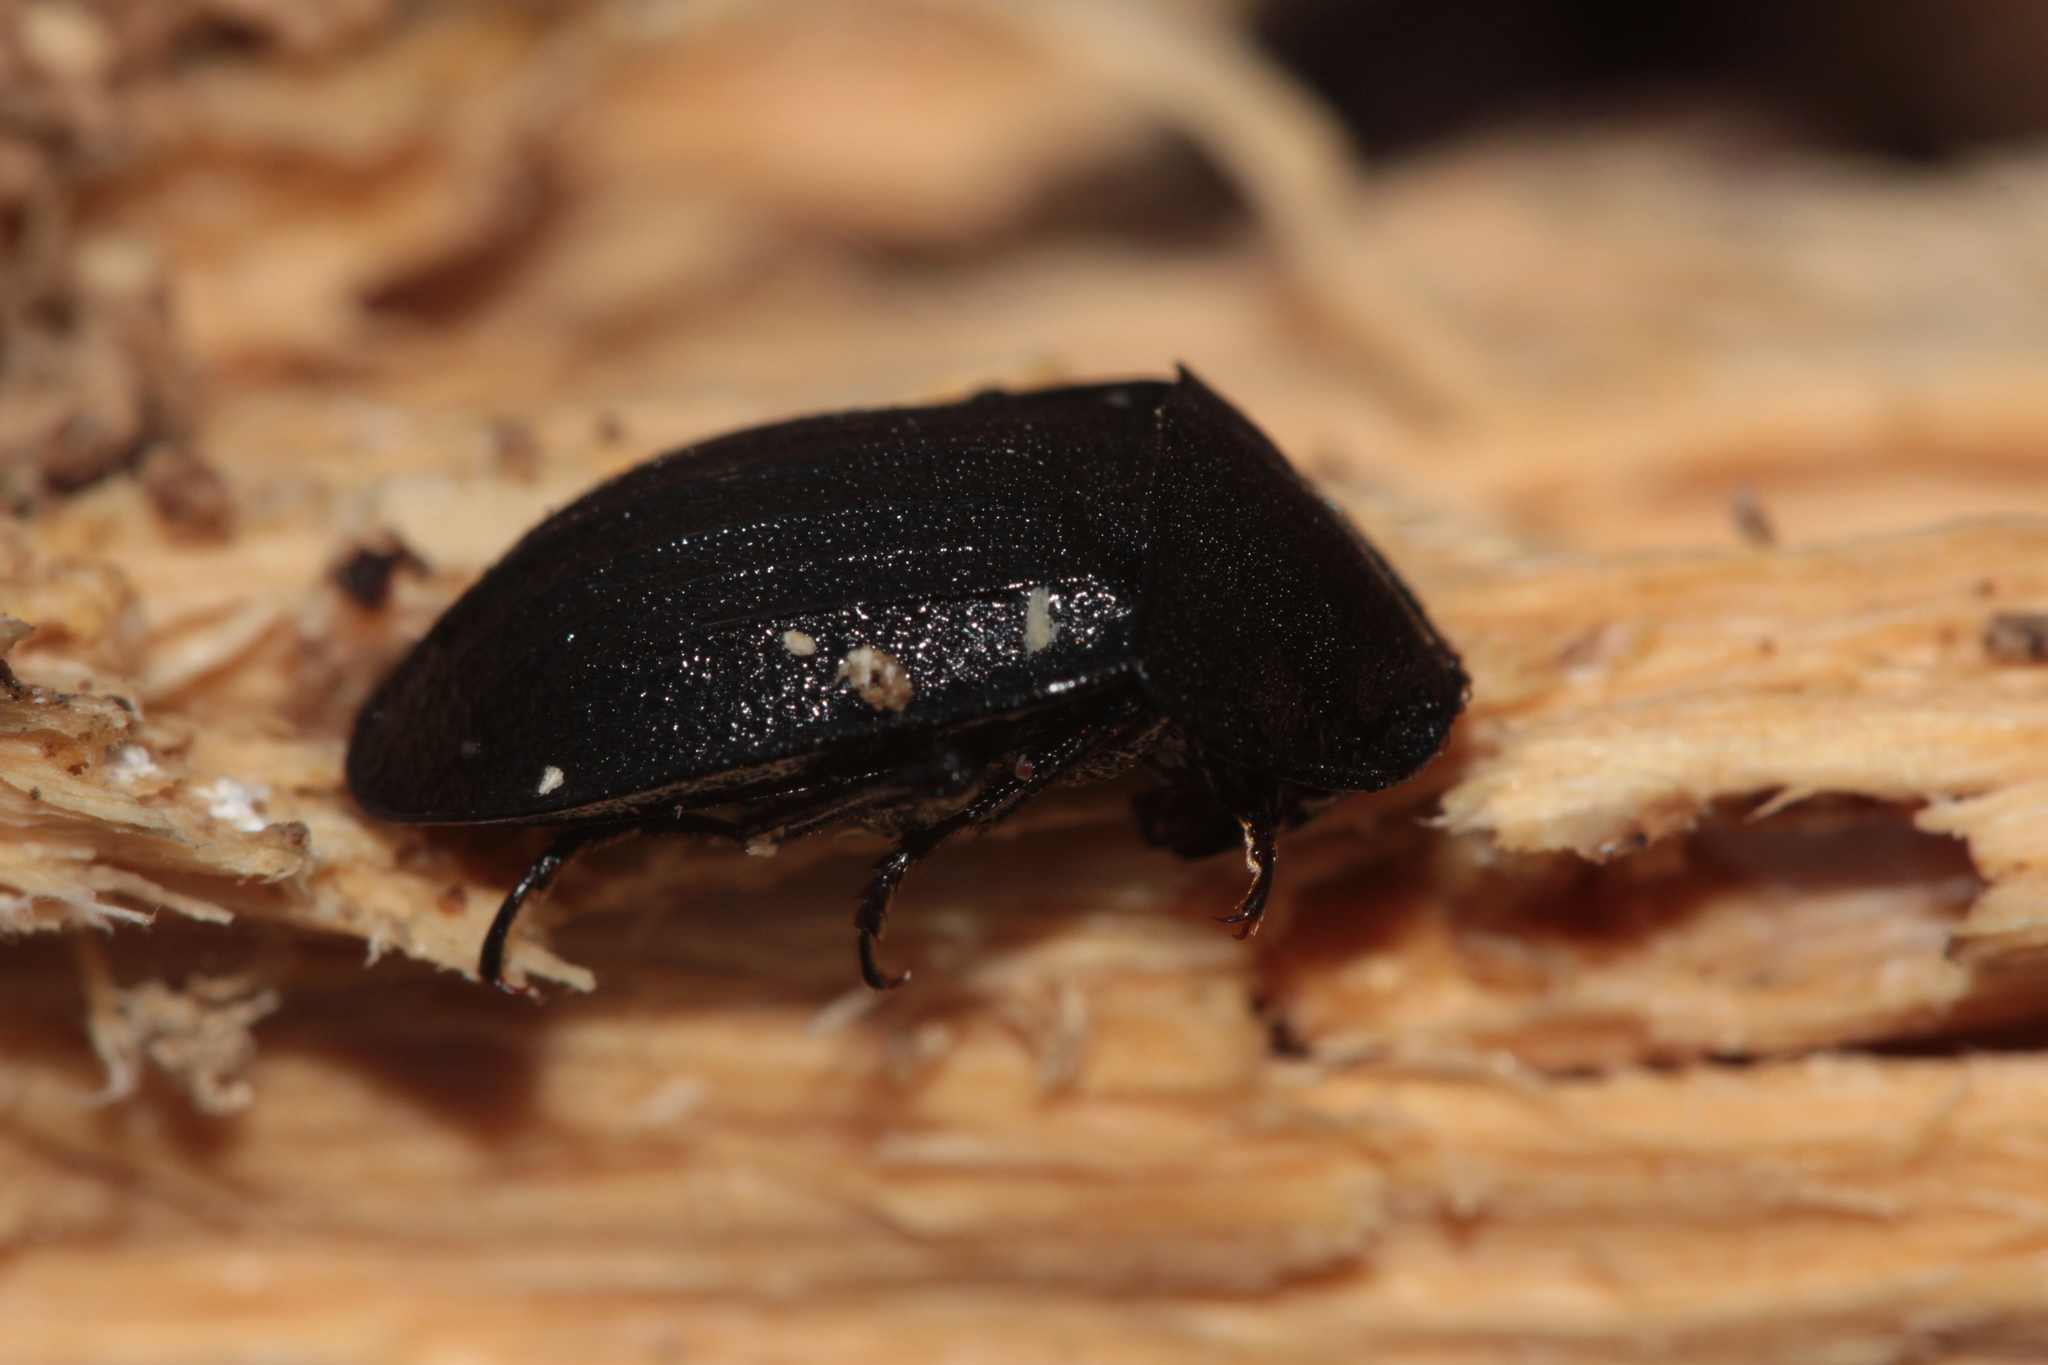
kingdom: Animalia
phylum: Arthropoda
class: Insecta
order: Coleoptera
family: Staphylinidae
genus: Silpha
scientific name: Silpha atrata
